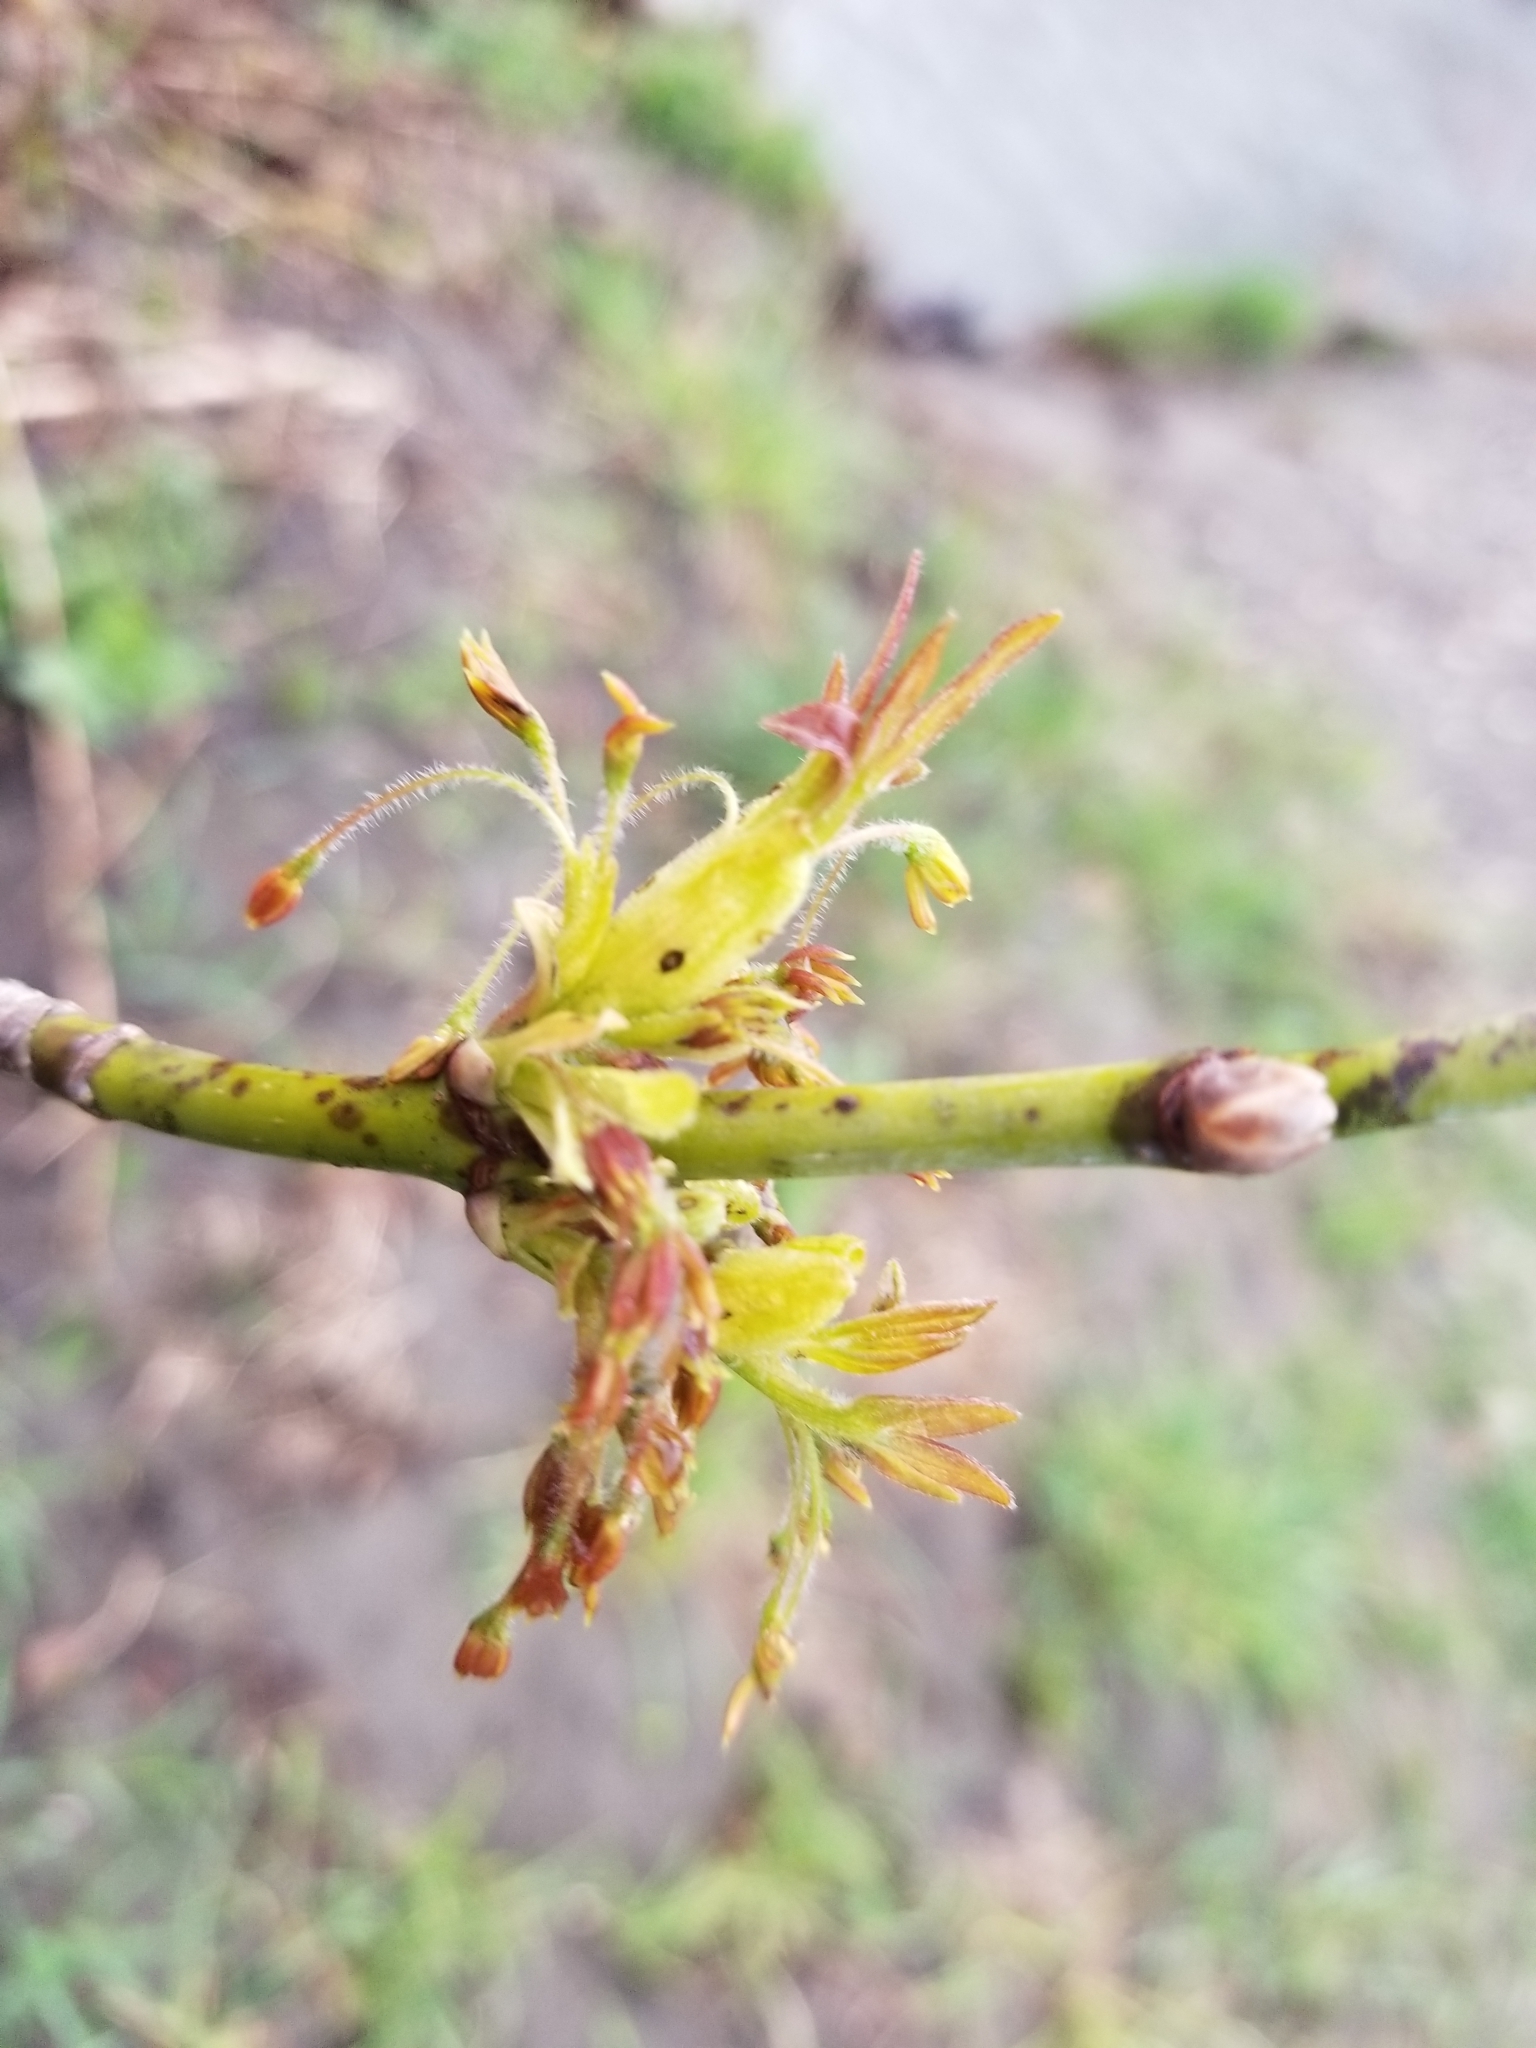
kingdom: Plantae
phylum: Tracheophyta
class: Magnoliopsida
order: Sapindales
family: Sapindaceae
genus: Acer
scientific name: Acer negundo
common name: Ashleaf maple
